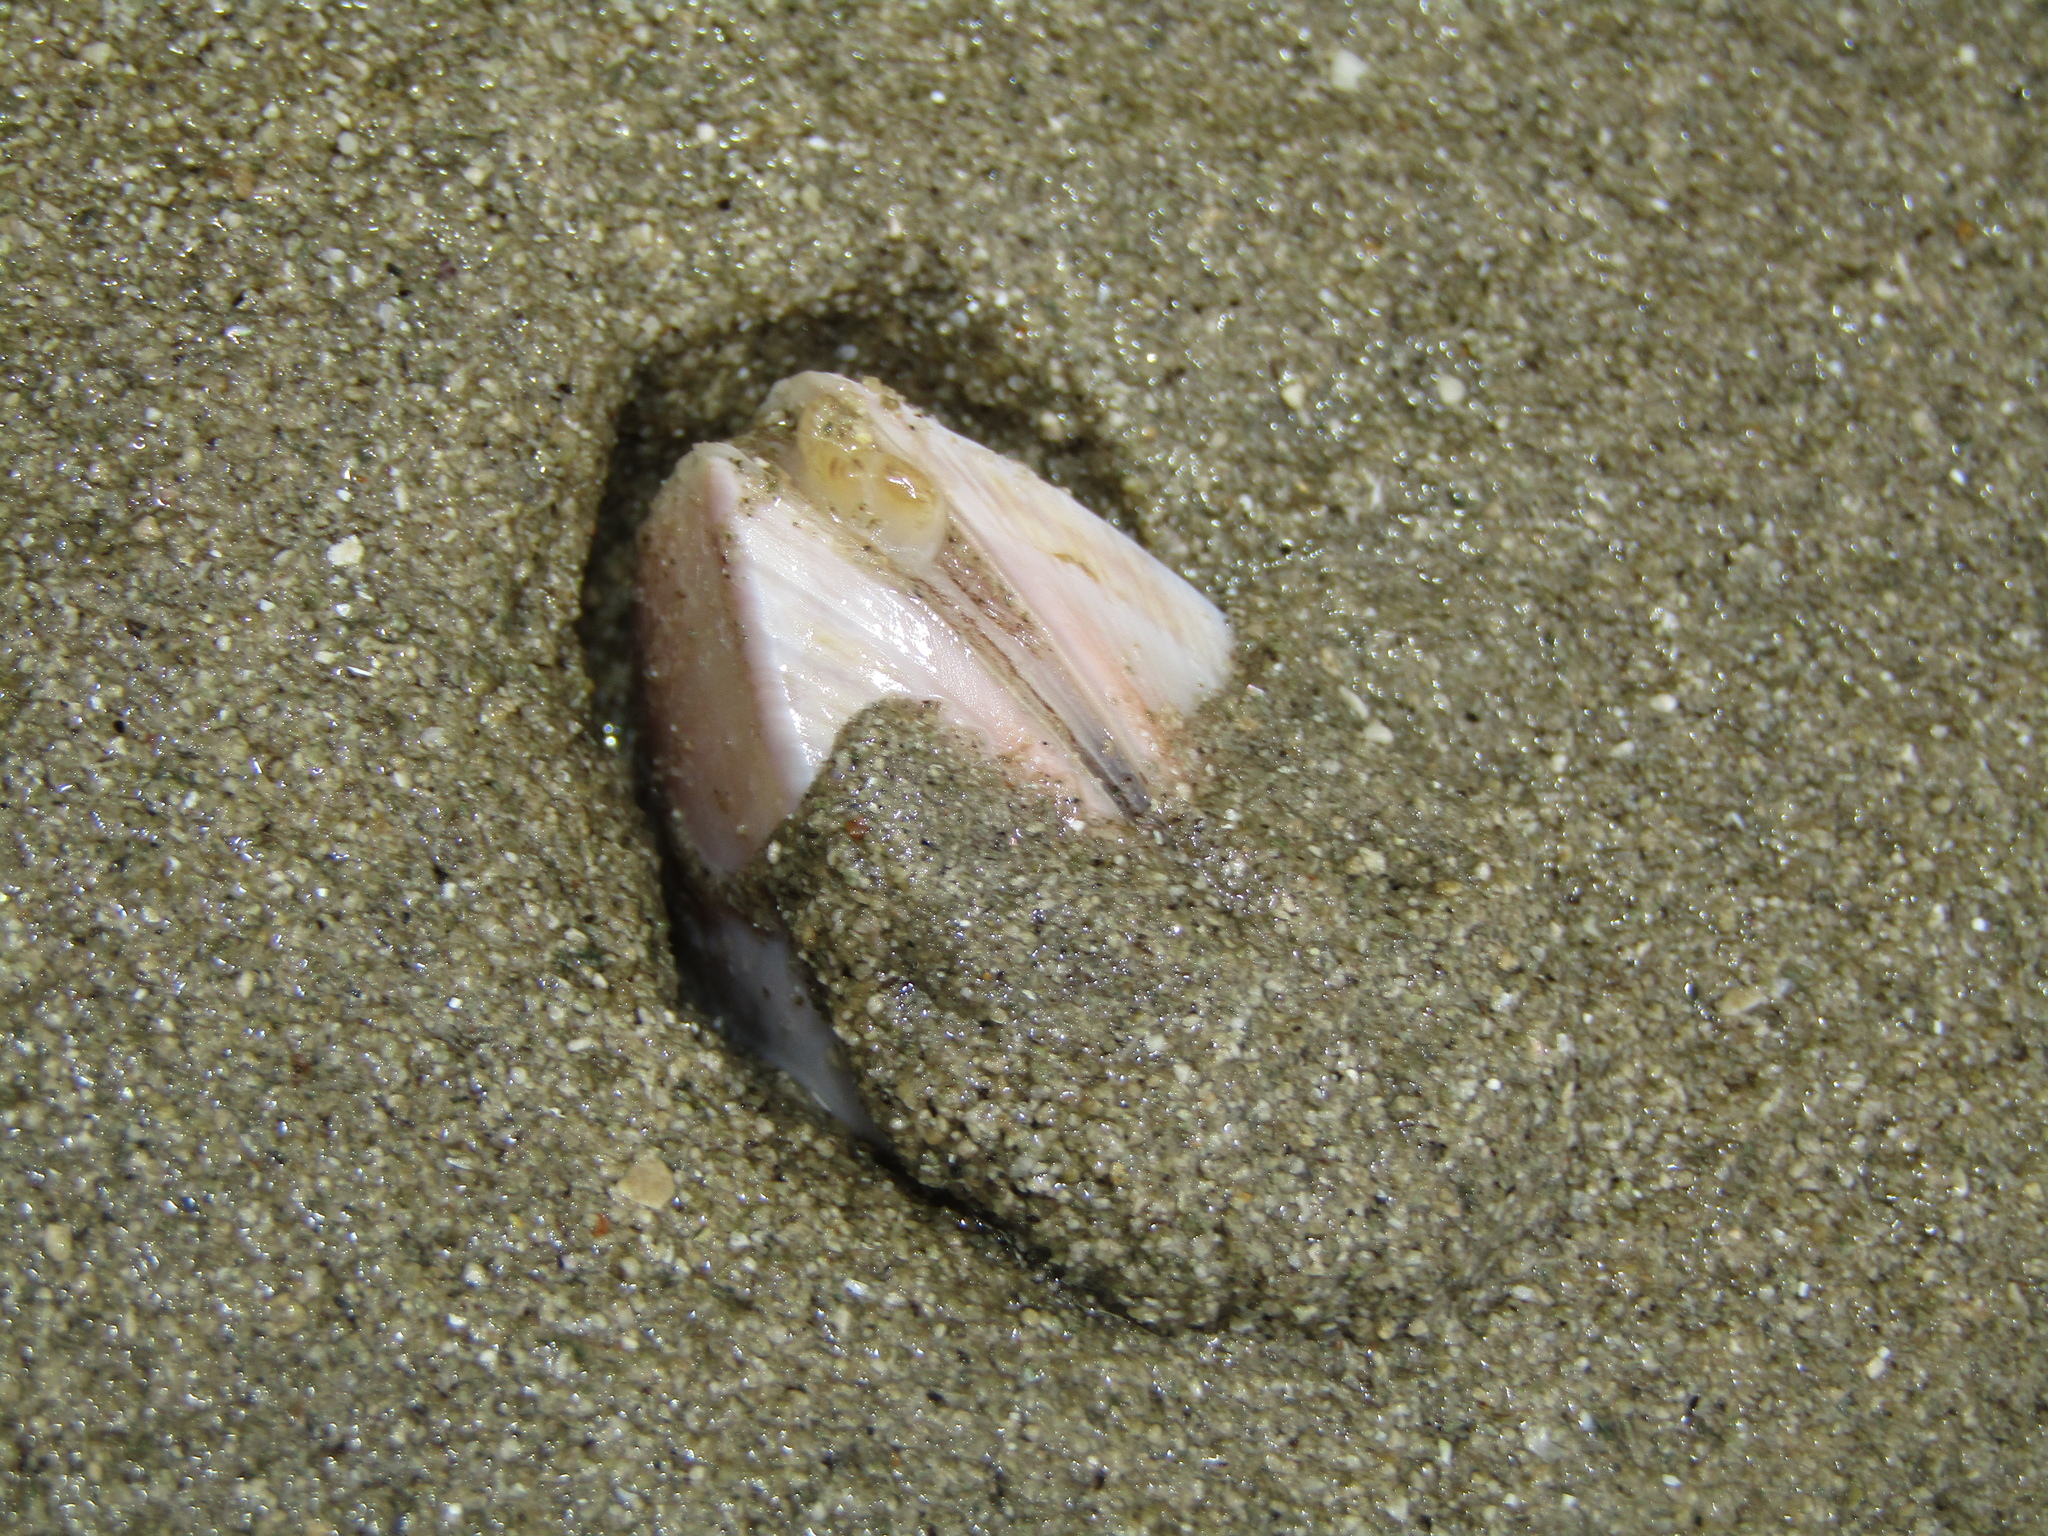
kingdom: Animalia
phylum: Mollusca
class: Bivalvia
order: Venerida
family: Mactridae
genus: Crassula
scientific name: Crassula aequilatera
